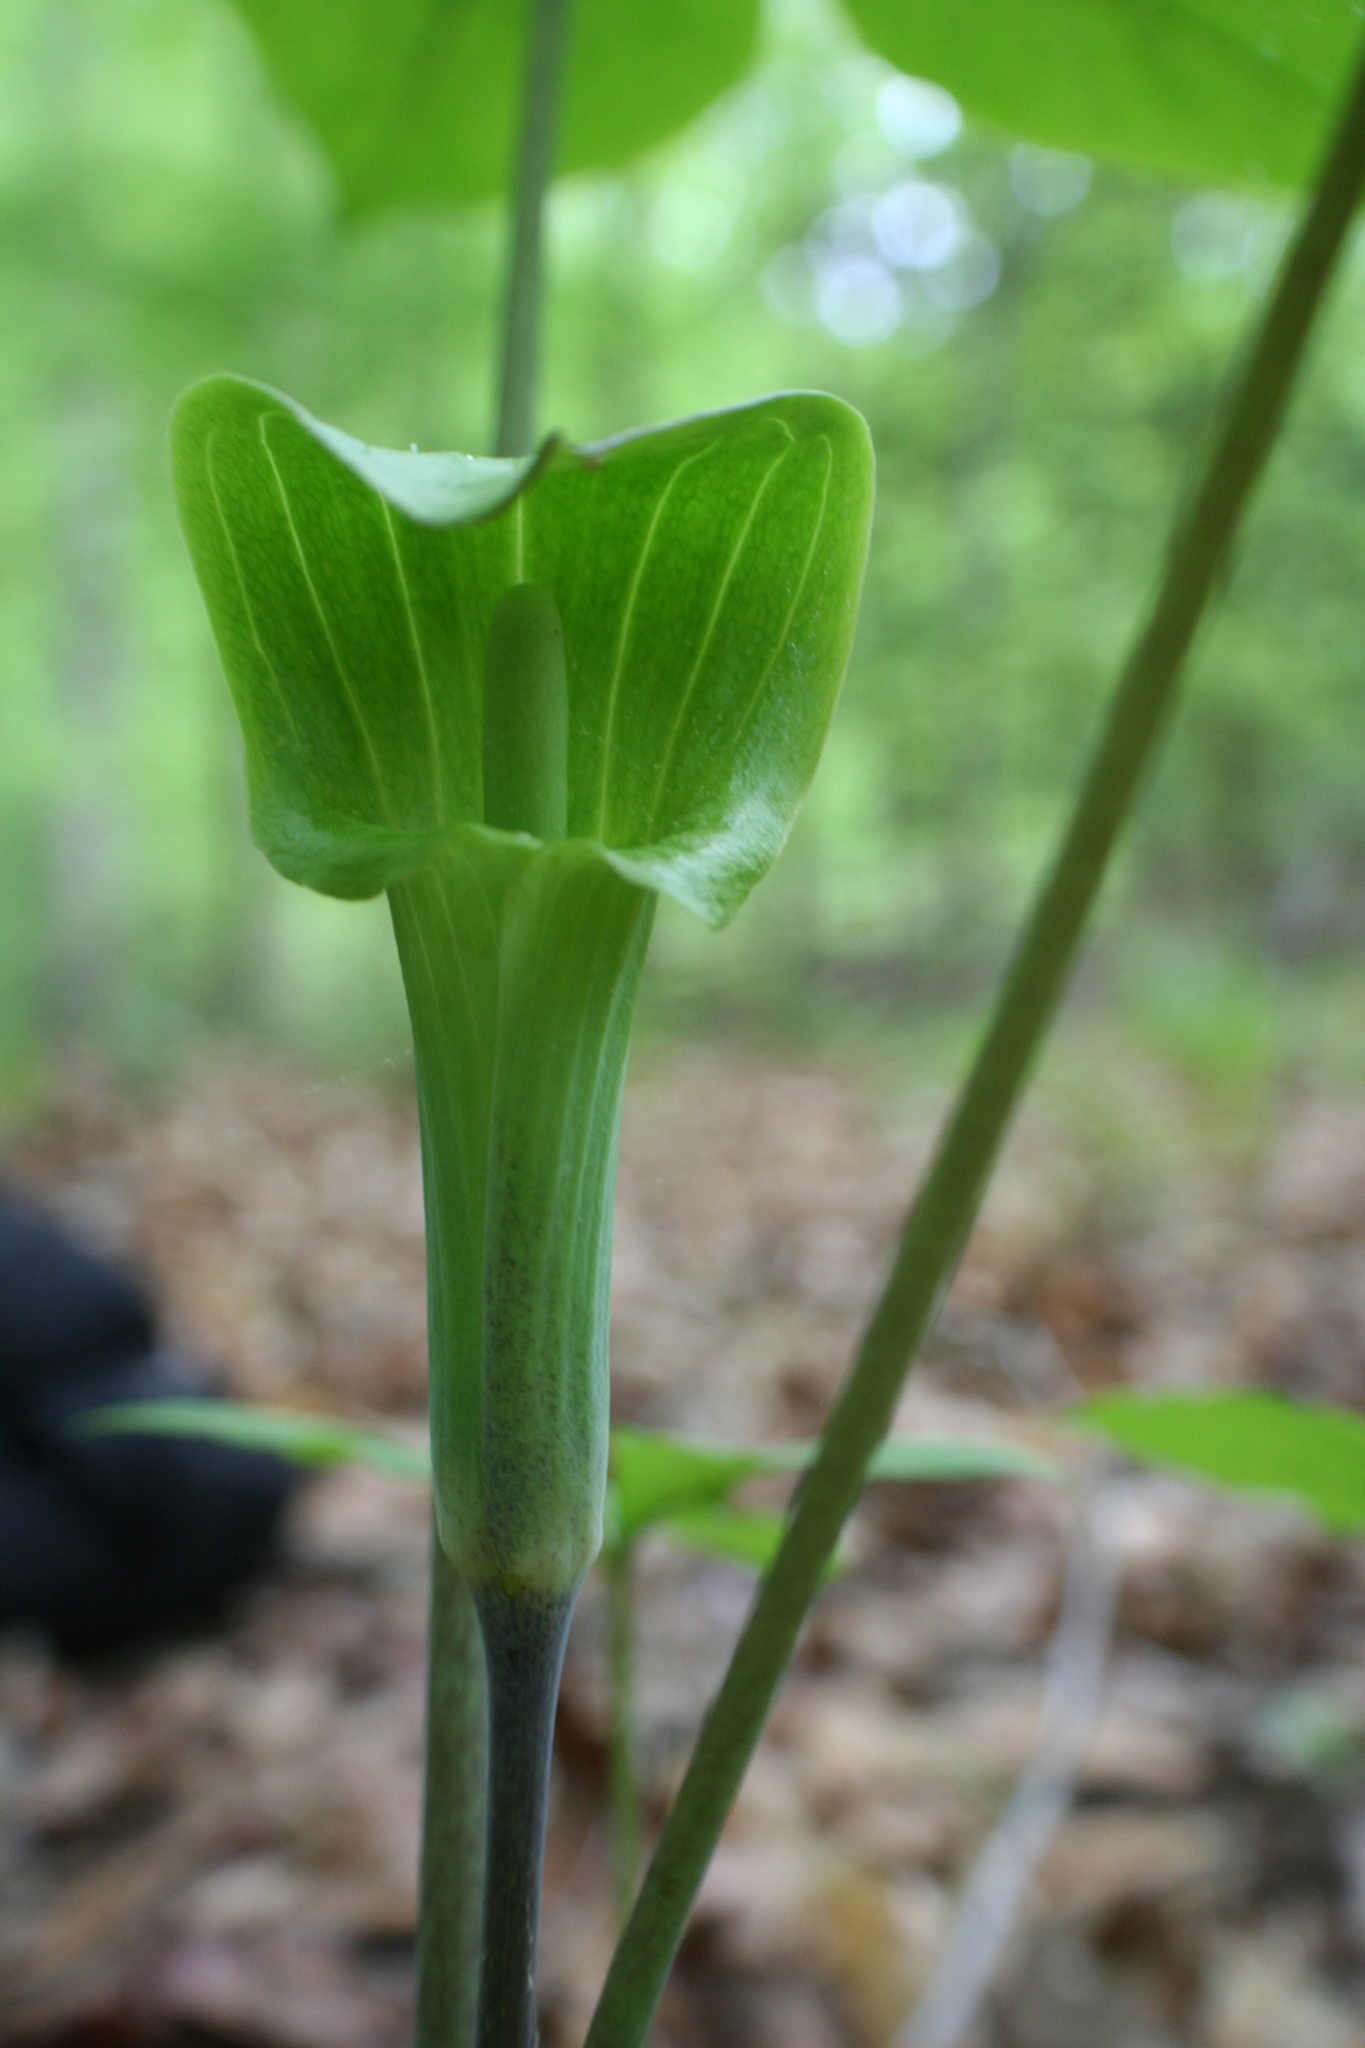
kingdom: Plantae
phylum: Tracheophyta
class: Liliopsida
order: Alismatales
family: Araceae
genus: Arisaema
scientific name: Arisaema triphyllum
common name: Jack-in-the-pulpit
